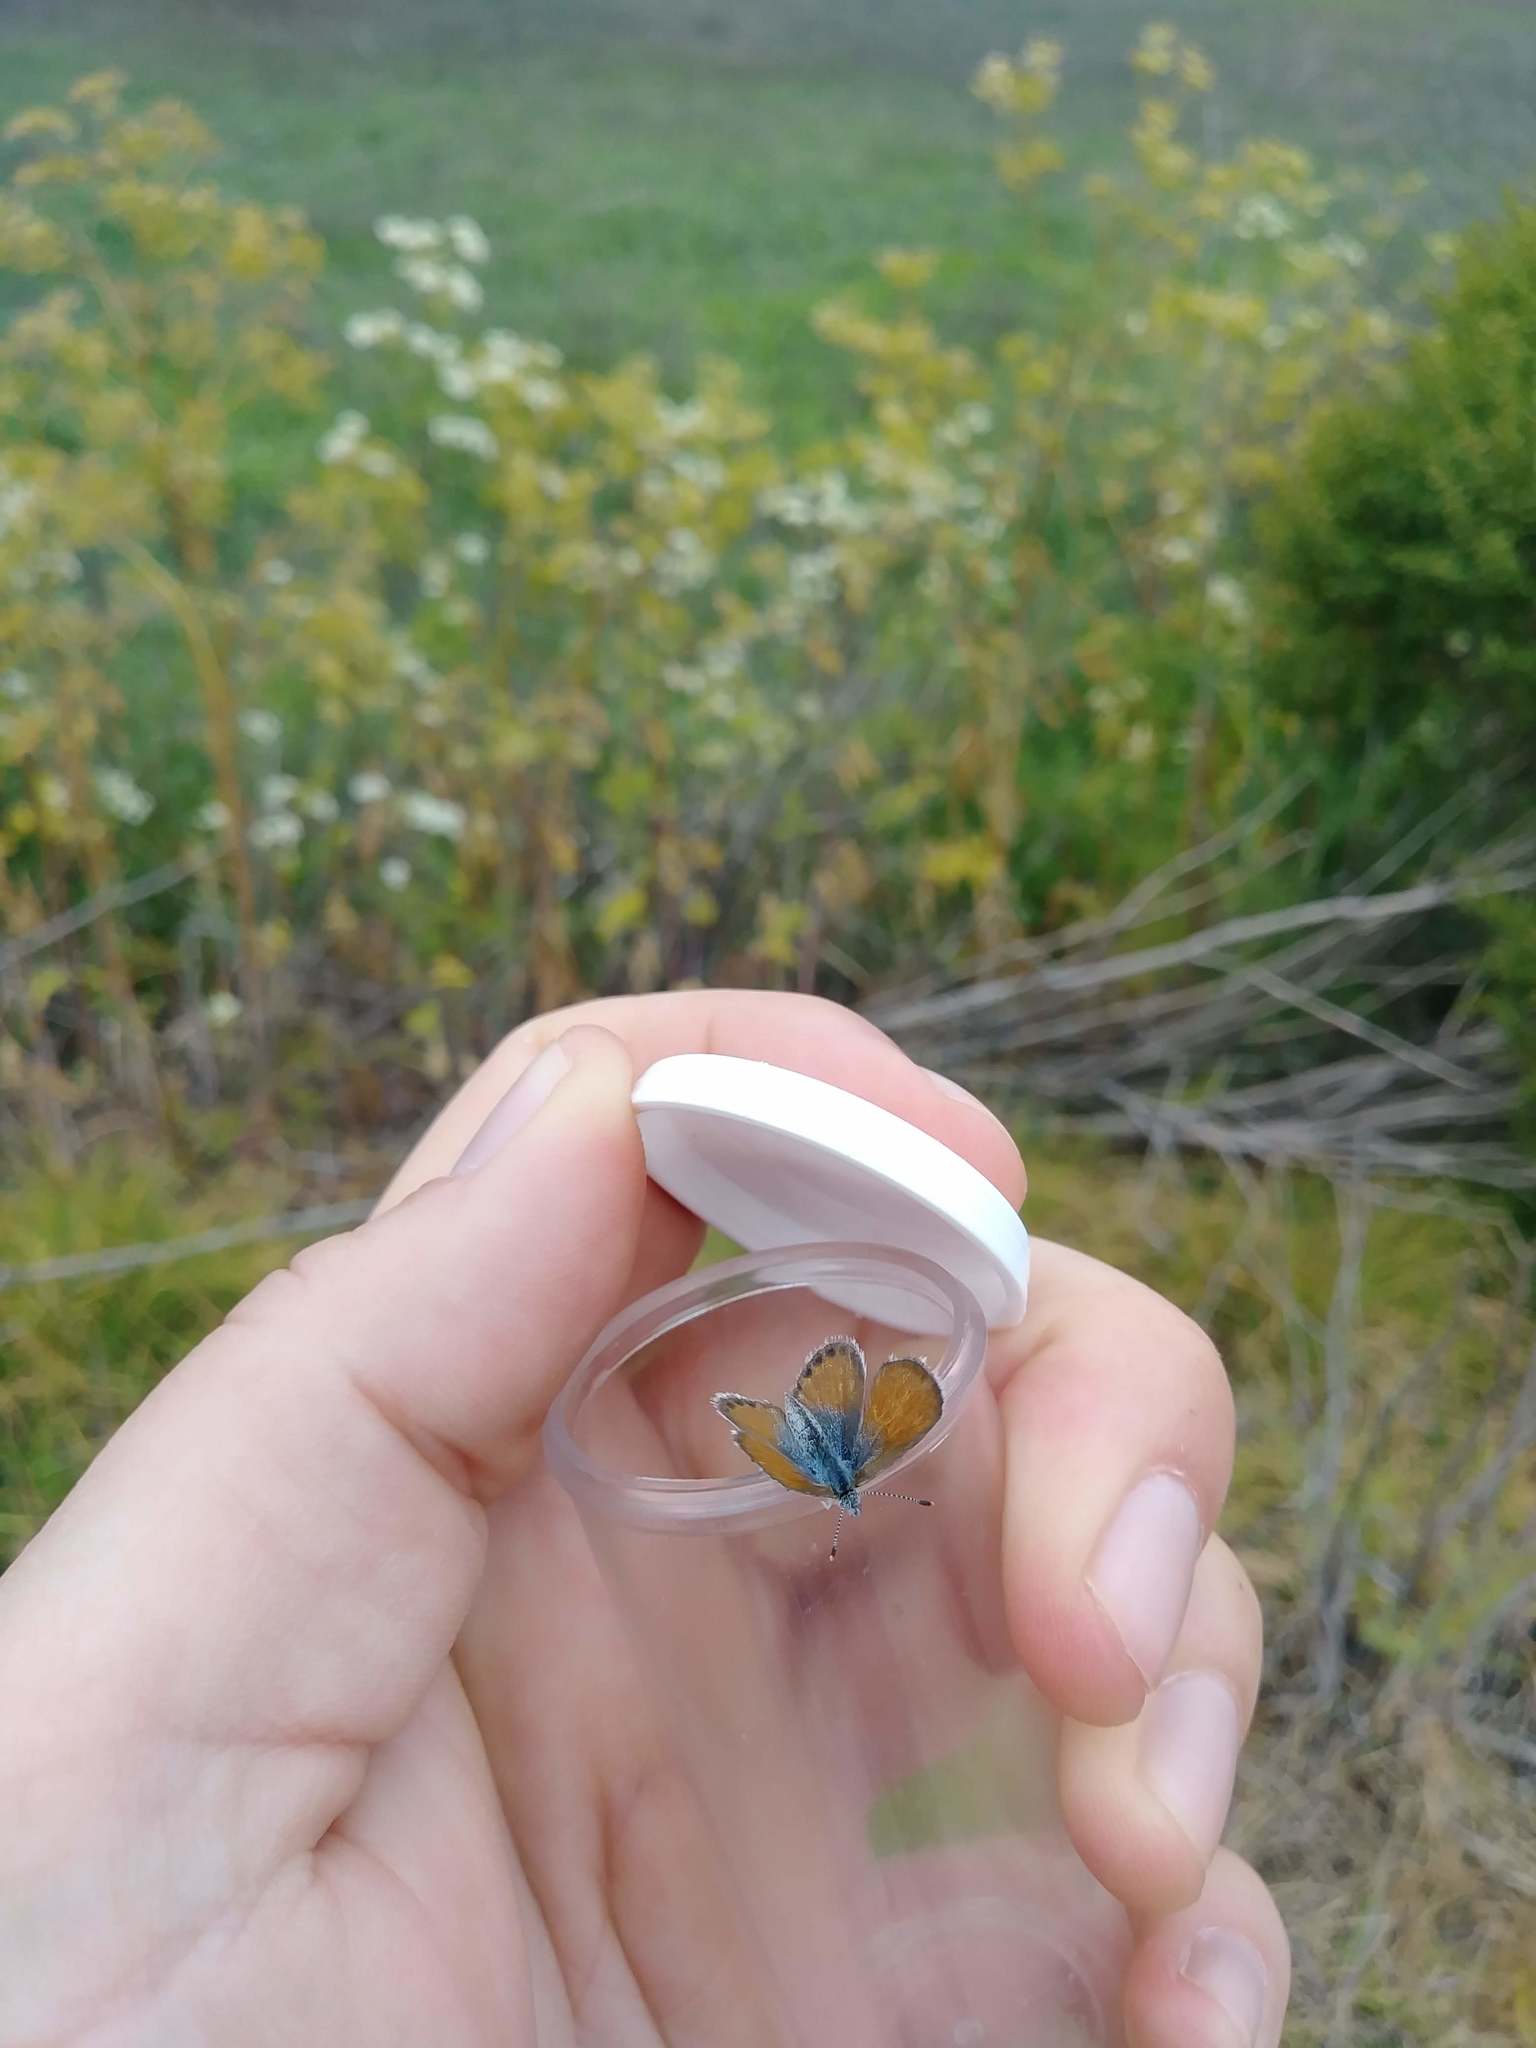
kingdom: Animalia
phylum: Arthropoda
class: Insecta
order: Lepidoptera
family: Lycaenidae
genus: Brephidium
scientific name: Brephidium exilis
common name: Pygmy blue
